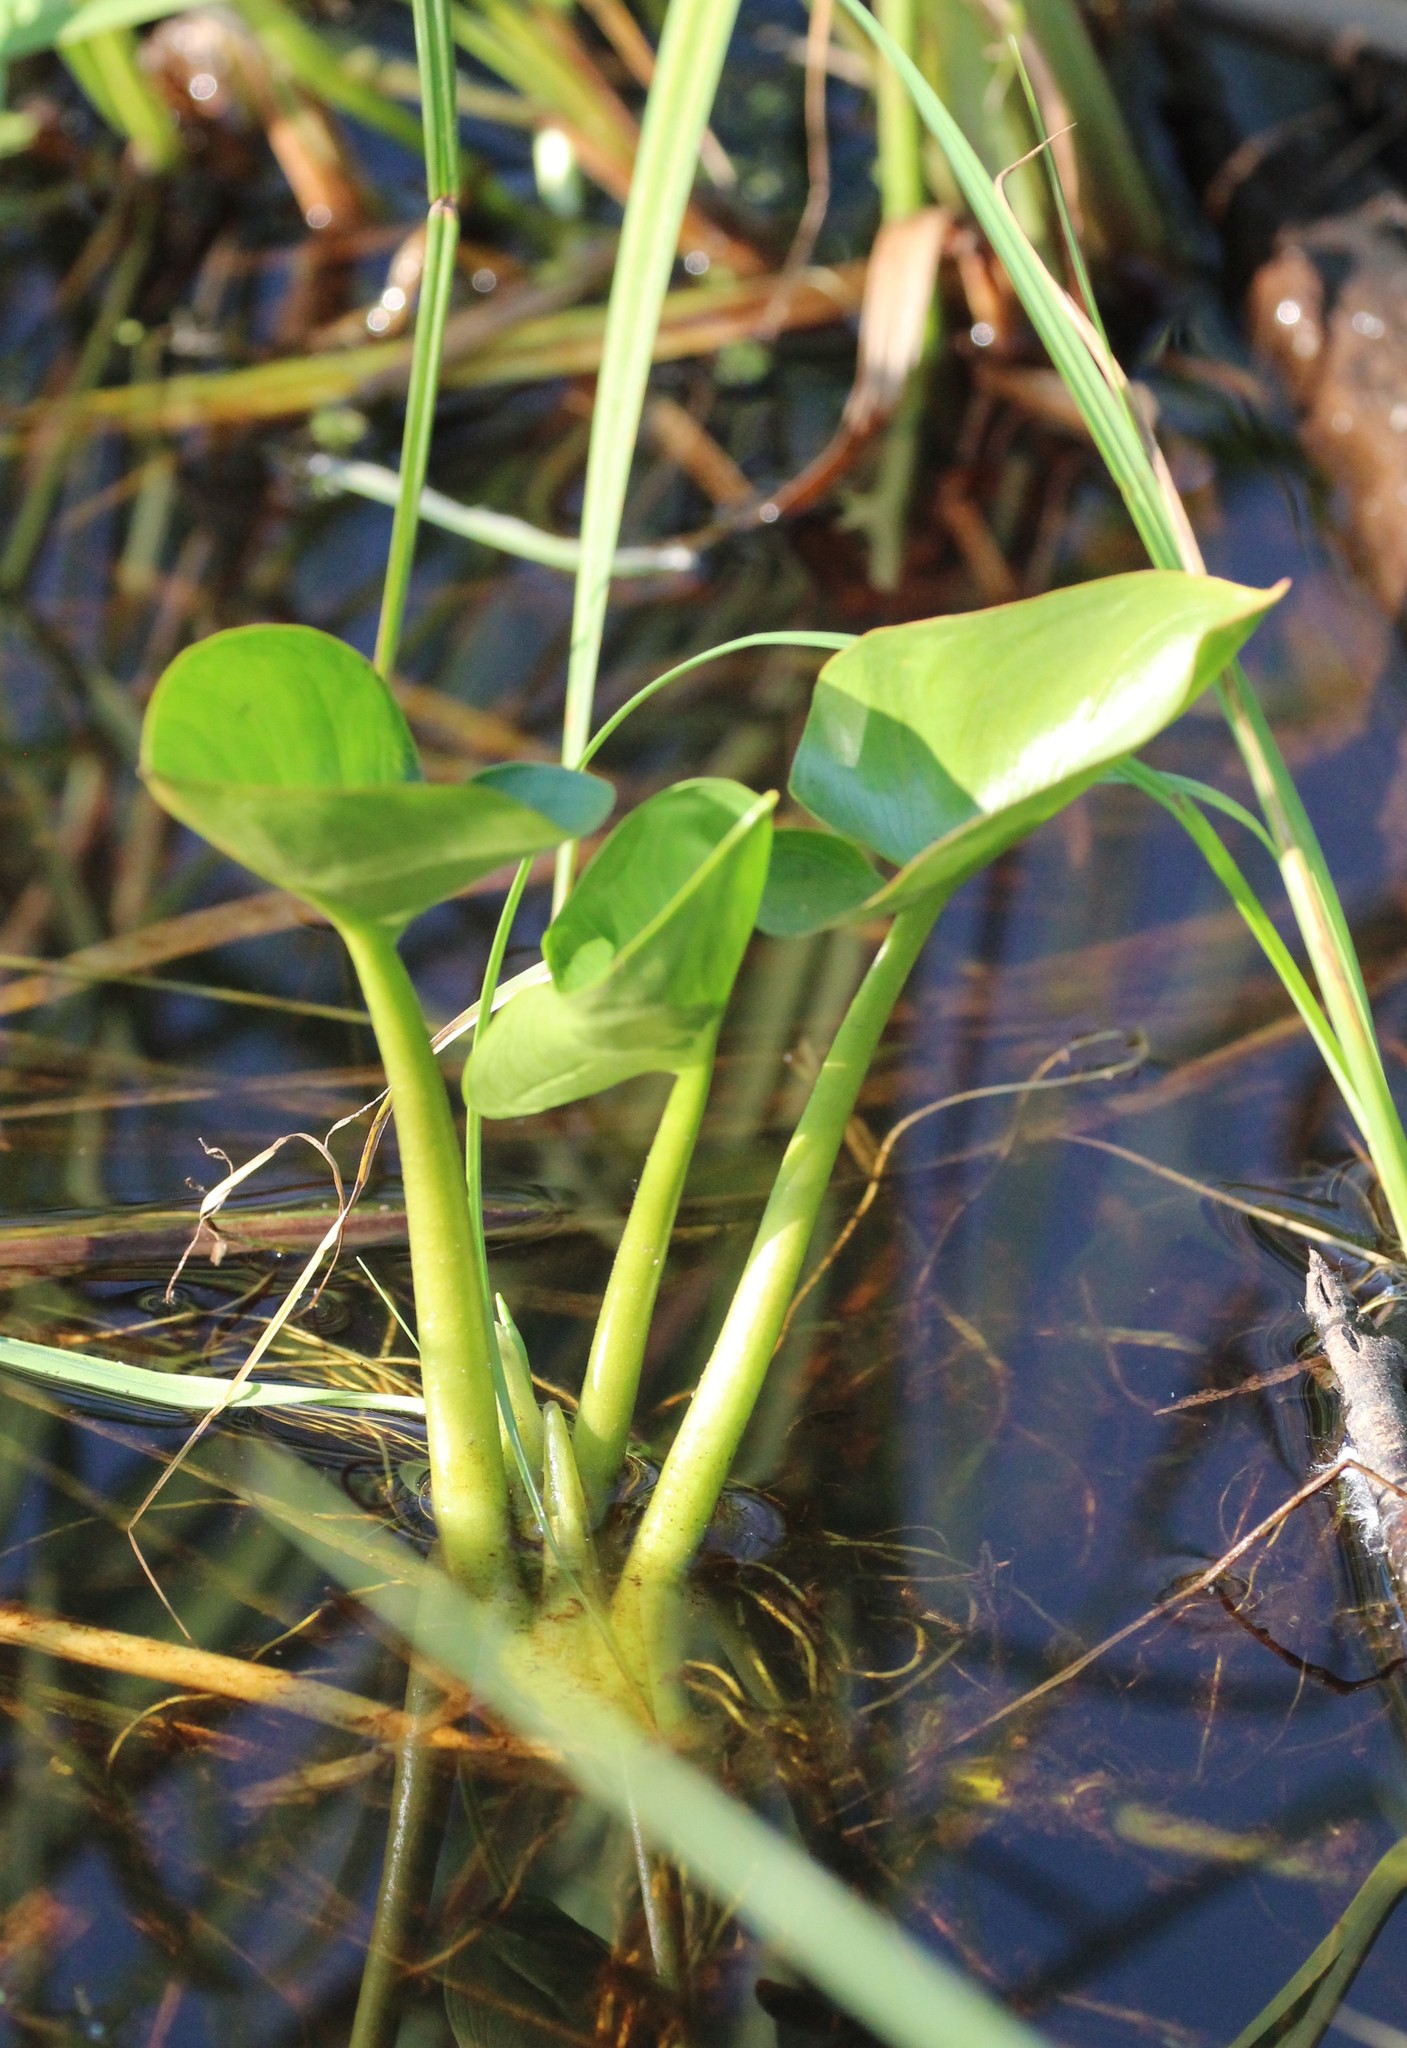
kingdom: Plantae
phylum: Tracheophyta
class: Liliopsida
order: Alismatales
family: Araceae
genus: Calla
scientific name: Calla palustris
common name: Bog arum
